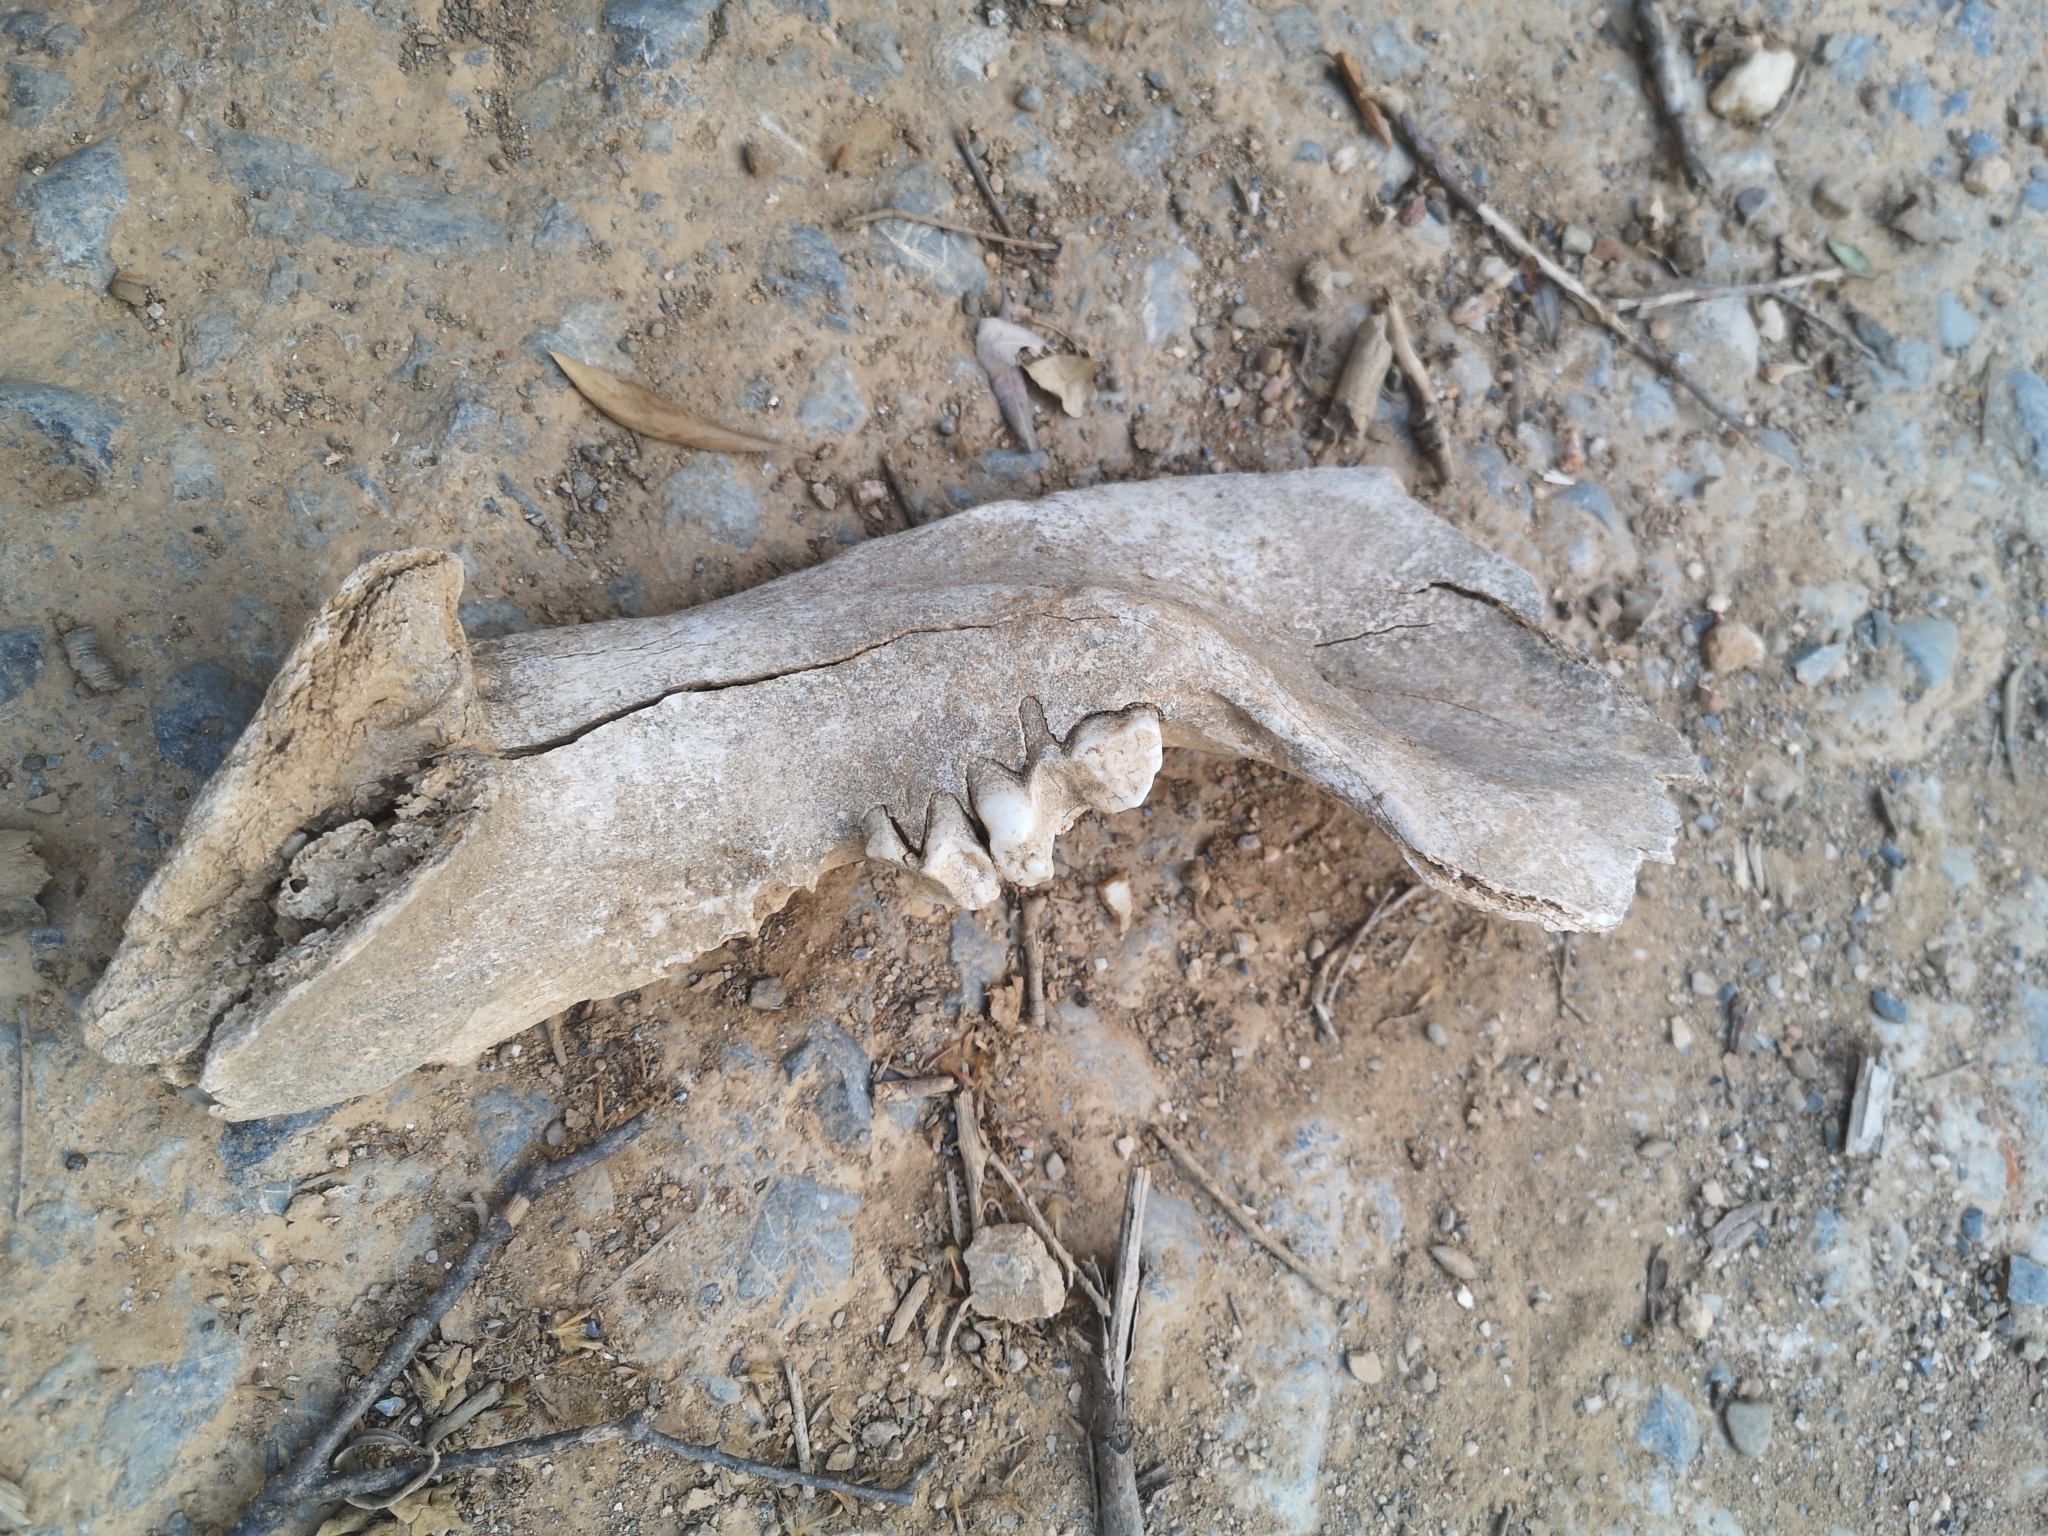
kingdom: Animalia
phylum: Chordata
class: Mammalia
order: Artiodactyla
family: Suidae
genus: Sus
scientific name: Sus scrofa
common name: Wild boar
